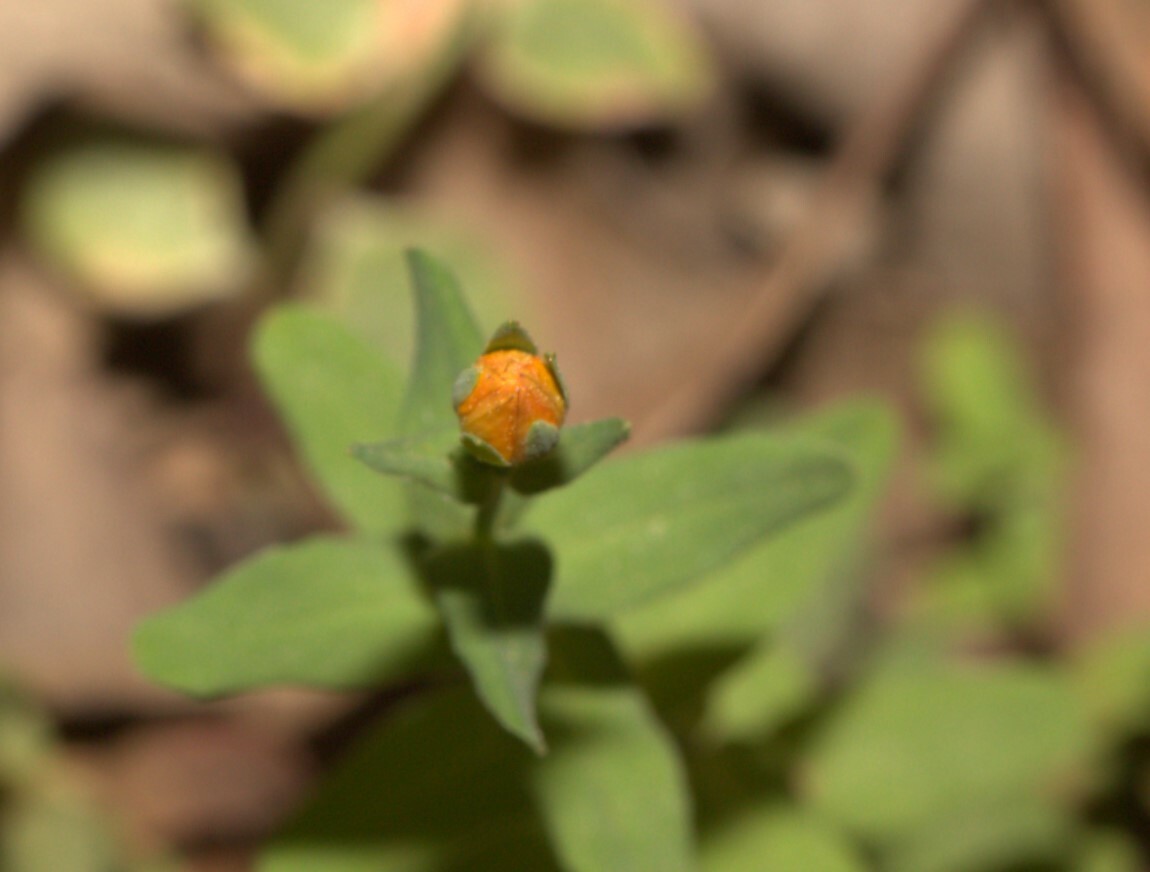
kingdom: Plantae
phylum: Tracheophyta
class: Magnoliopsida
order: Malpighiales
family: Hypericaceae
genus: Hypericum
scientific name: Hypericum gramineum
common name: Grassy st. johnswort
